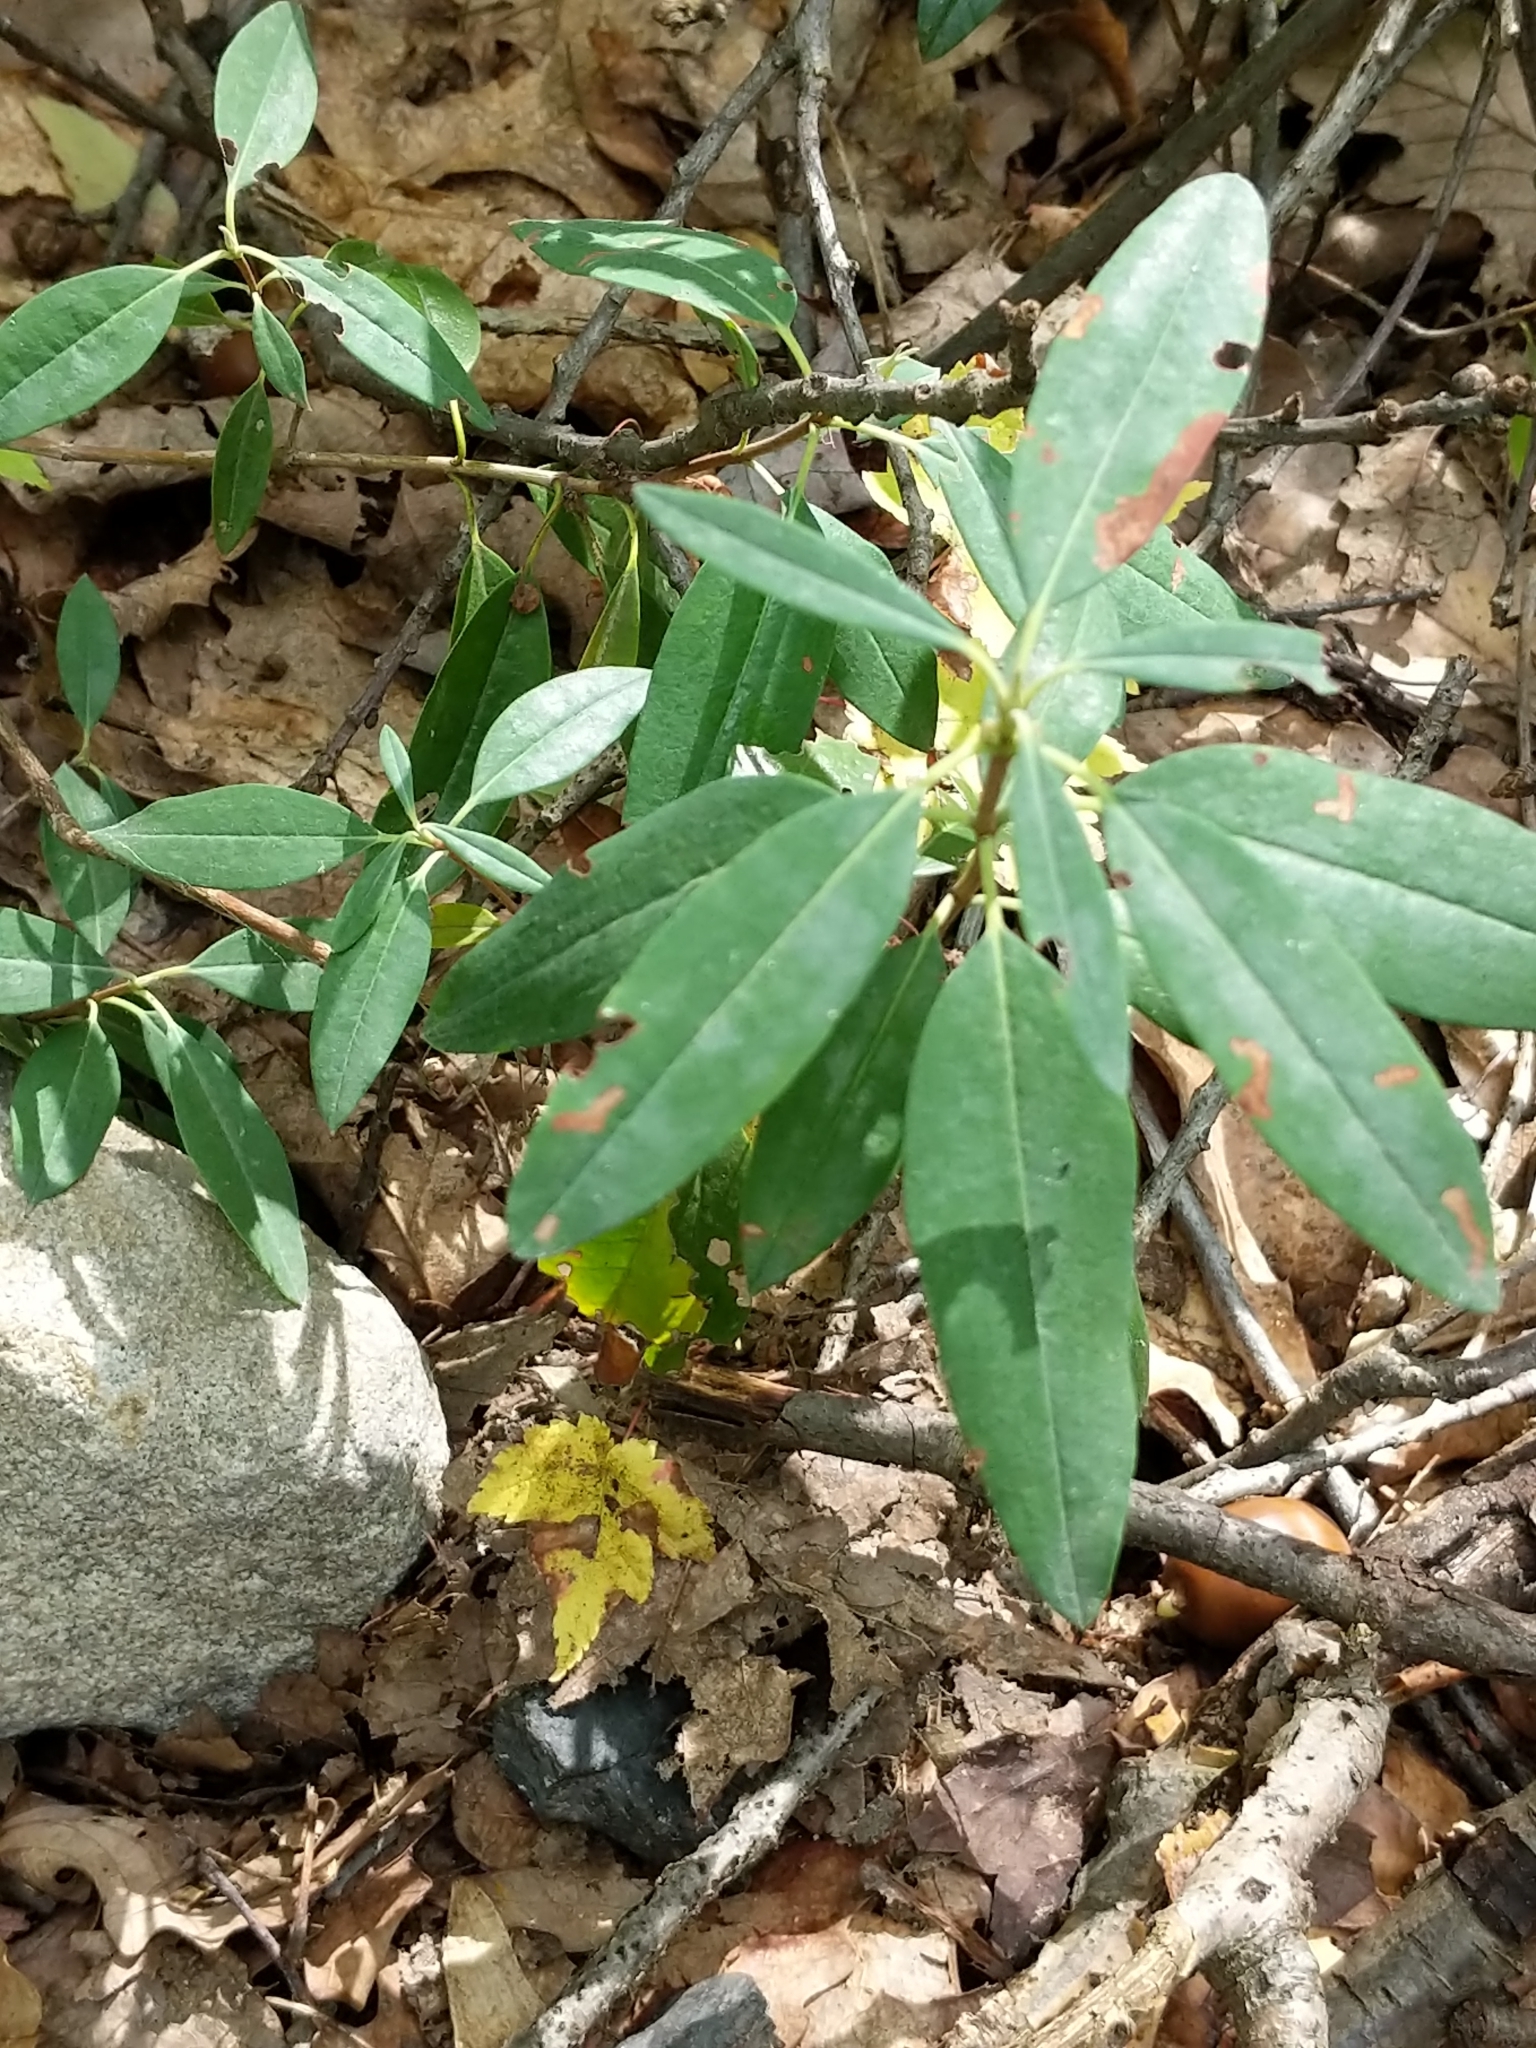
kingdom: Plantae
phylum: Tracheophyta
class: Magnoliopsida
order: Ericales
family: Ericaceae
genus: Kalmia
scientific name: Kalmia angustifolia
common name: Sheep-laurel
